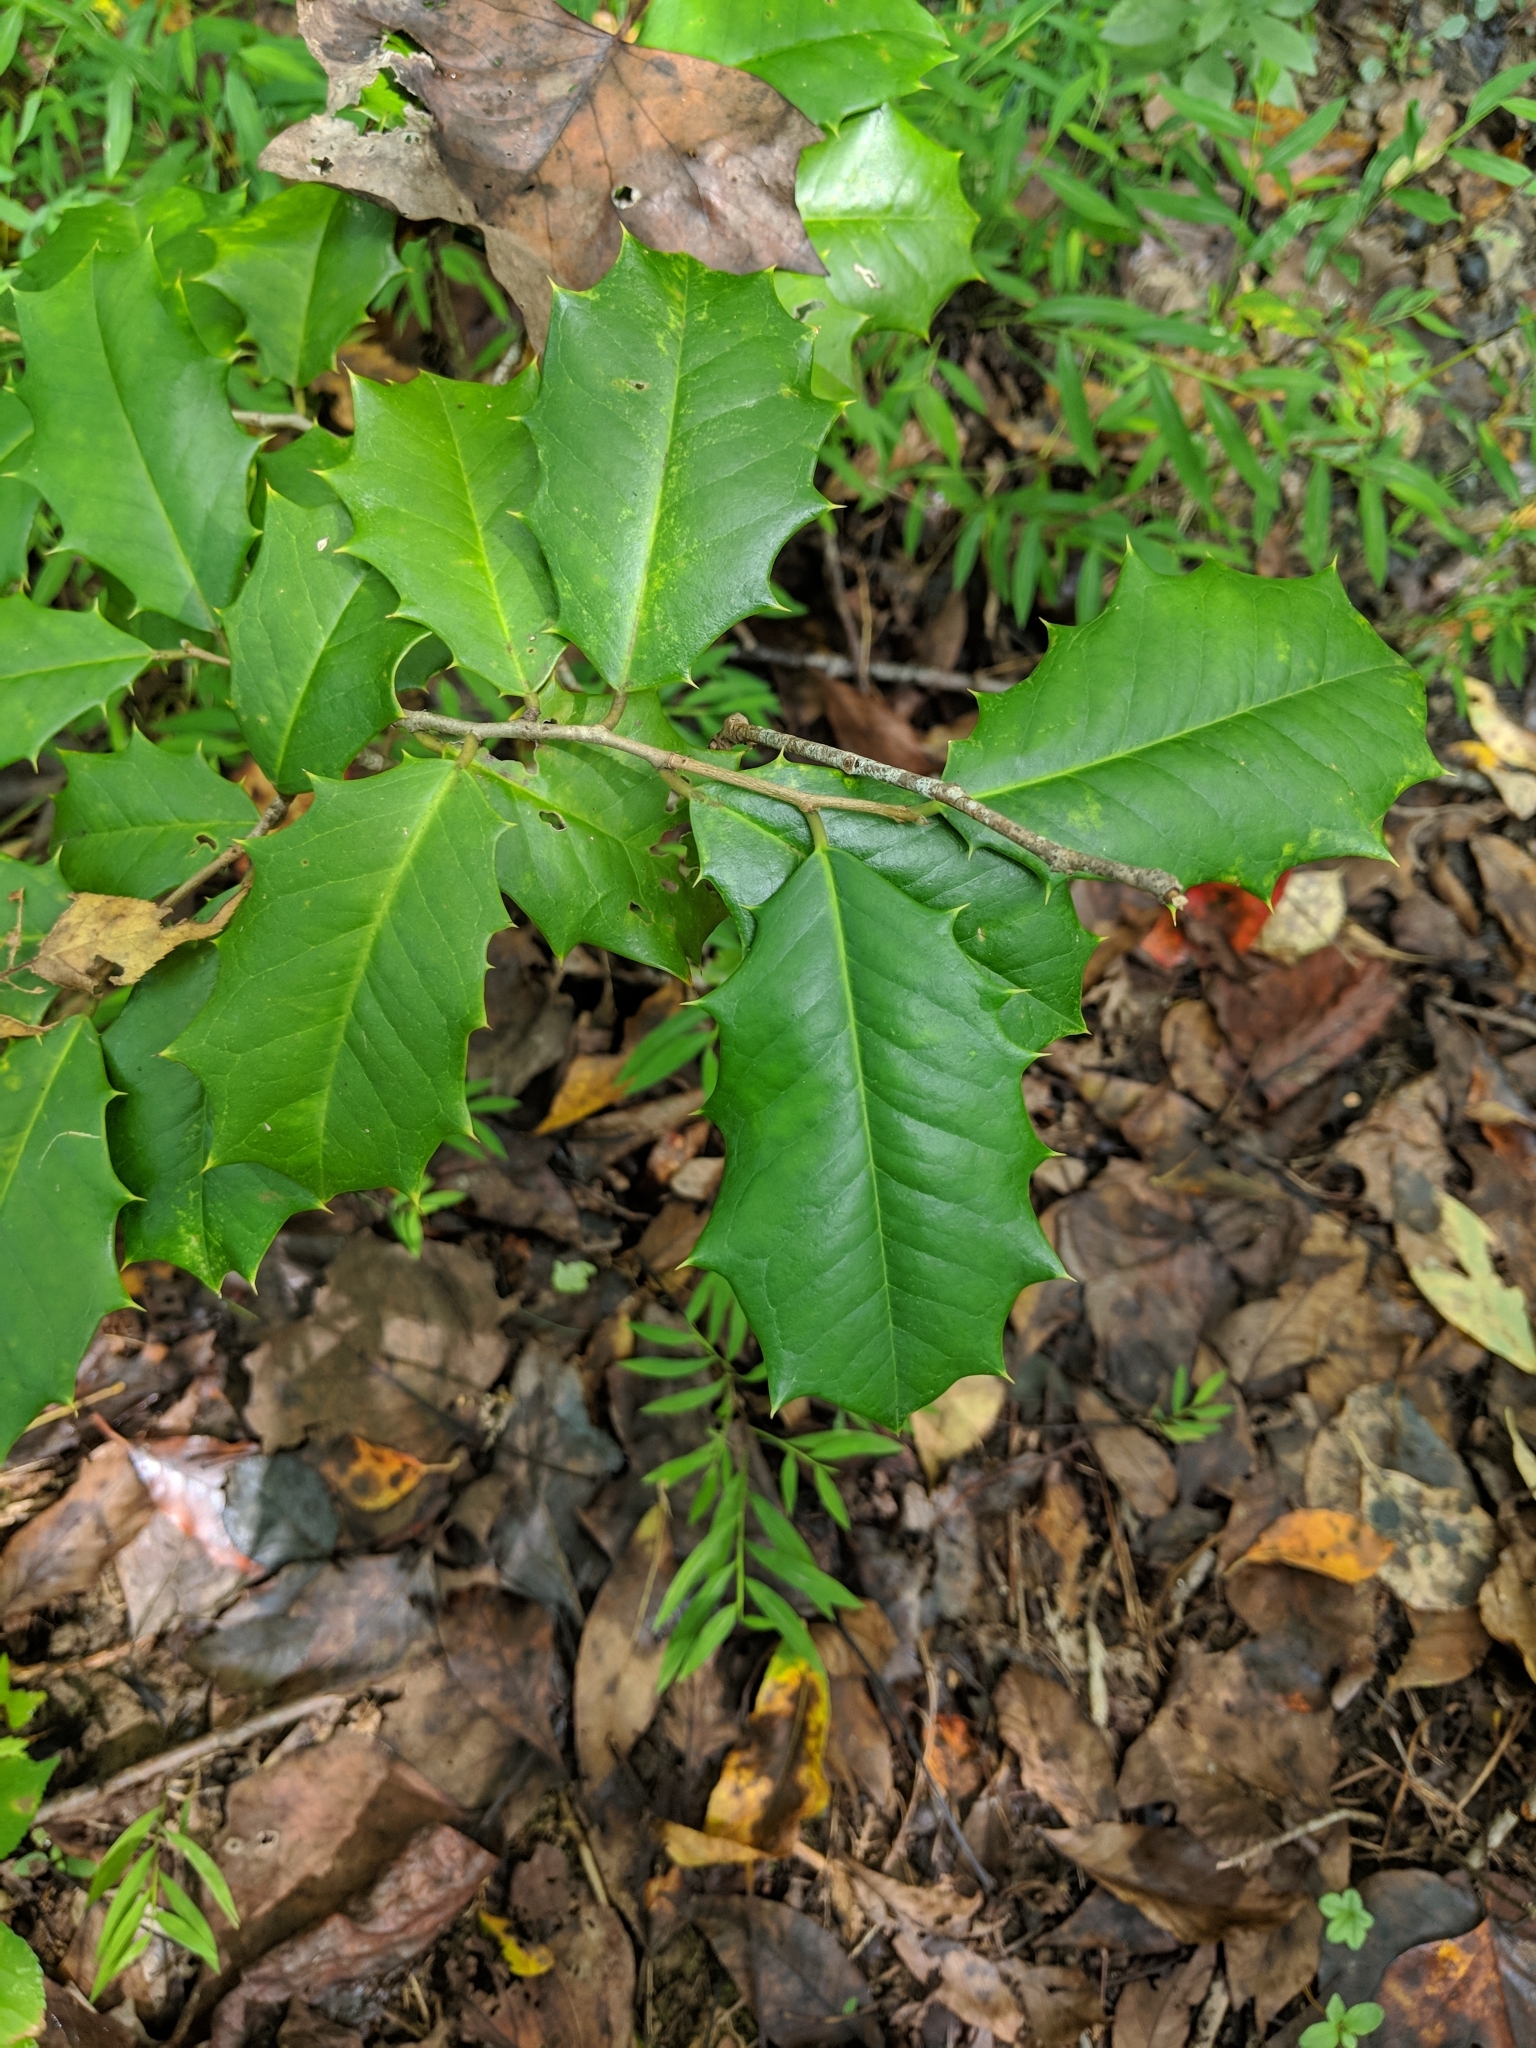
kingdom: Plantae
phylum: Tracheophyta
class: Magnoliopsida
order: Aquifoliales
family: Aquifoliaceae
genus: Ilex
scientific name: Ilex opaca
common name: American holly
